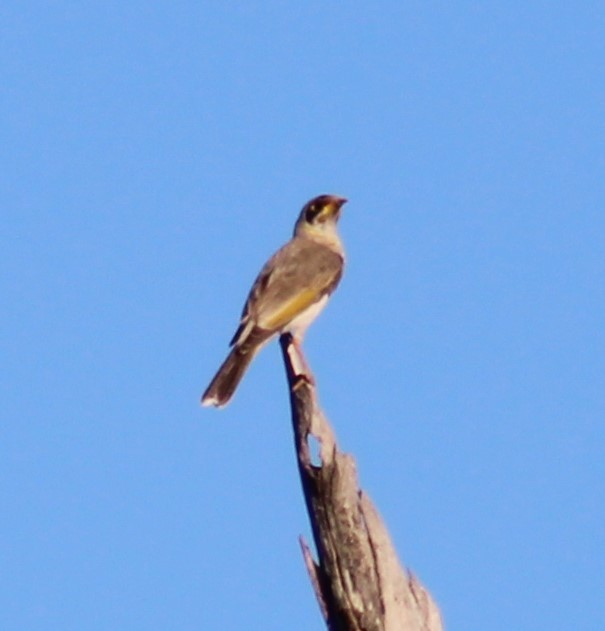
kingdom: Animalia
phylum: Chordata
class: Aves
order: Passeriformes
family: Meliphagidae
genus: Manorina
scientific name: Manorina flavigula
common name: Yellow-throated miner
